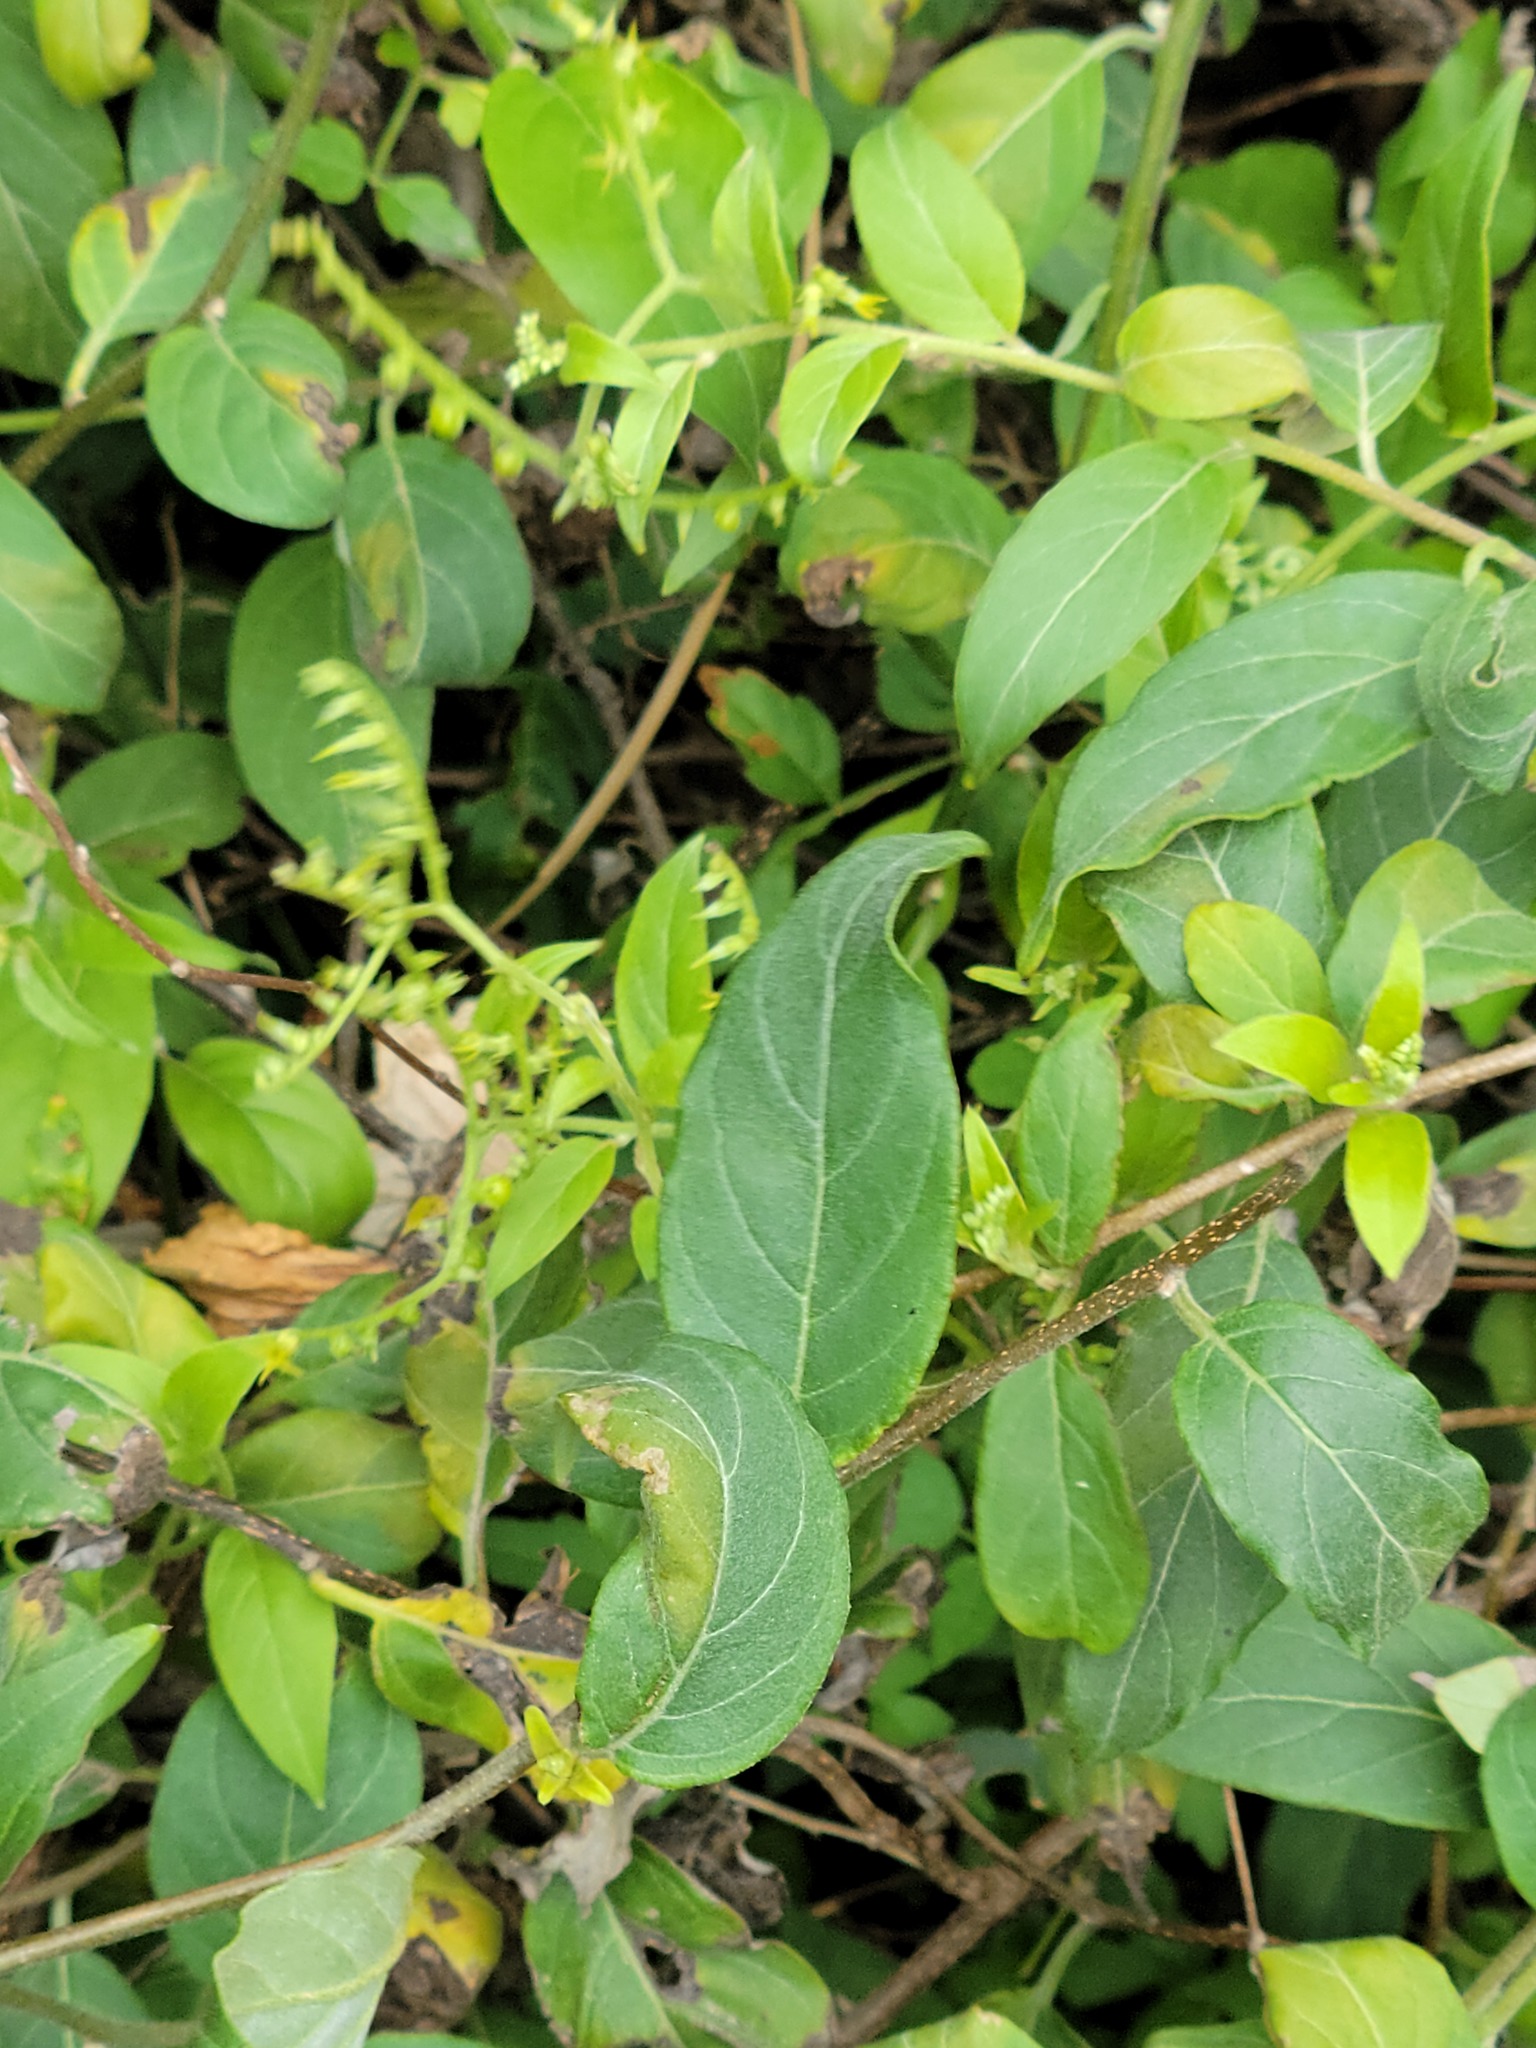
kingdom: Plantae
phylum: Tracheophyta
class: Magnoliopsida
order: Boraginales
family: Heliotropiaceae
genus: Myriopus
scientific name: Myriopus volubilis
